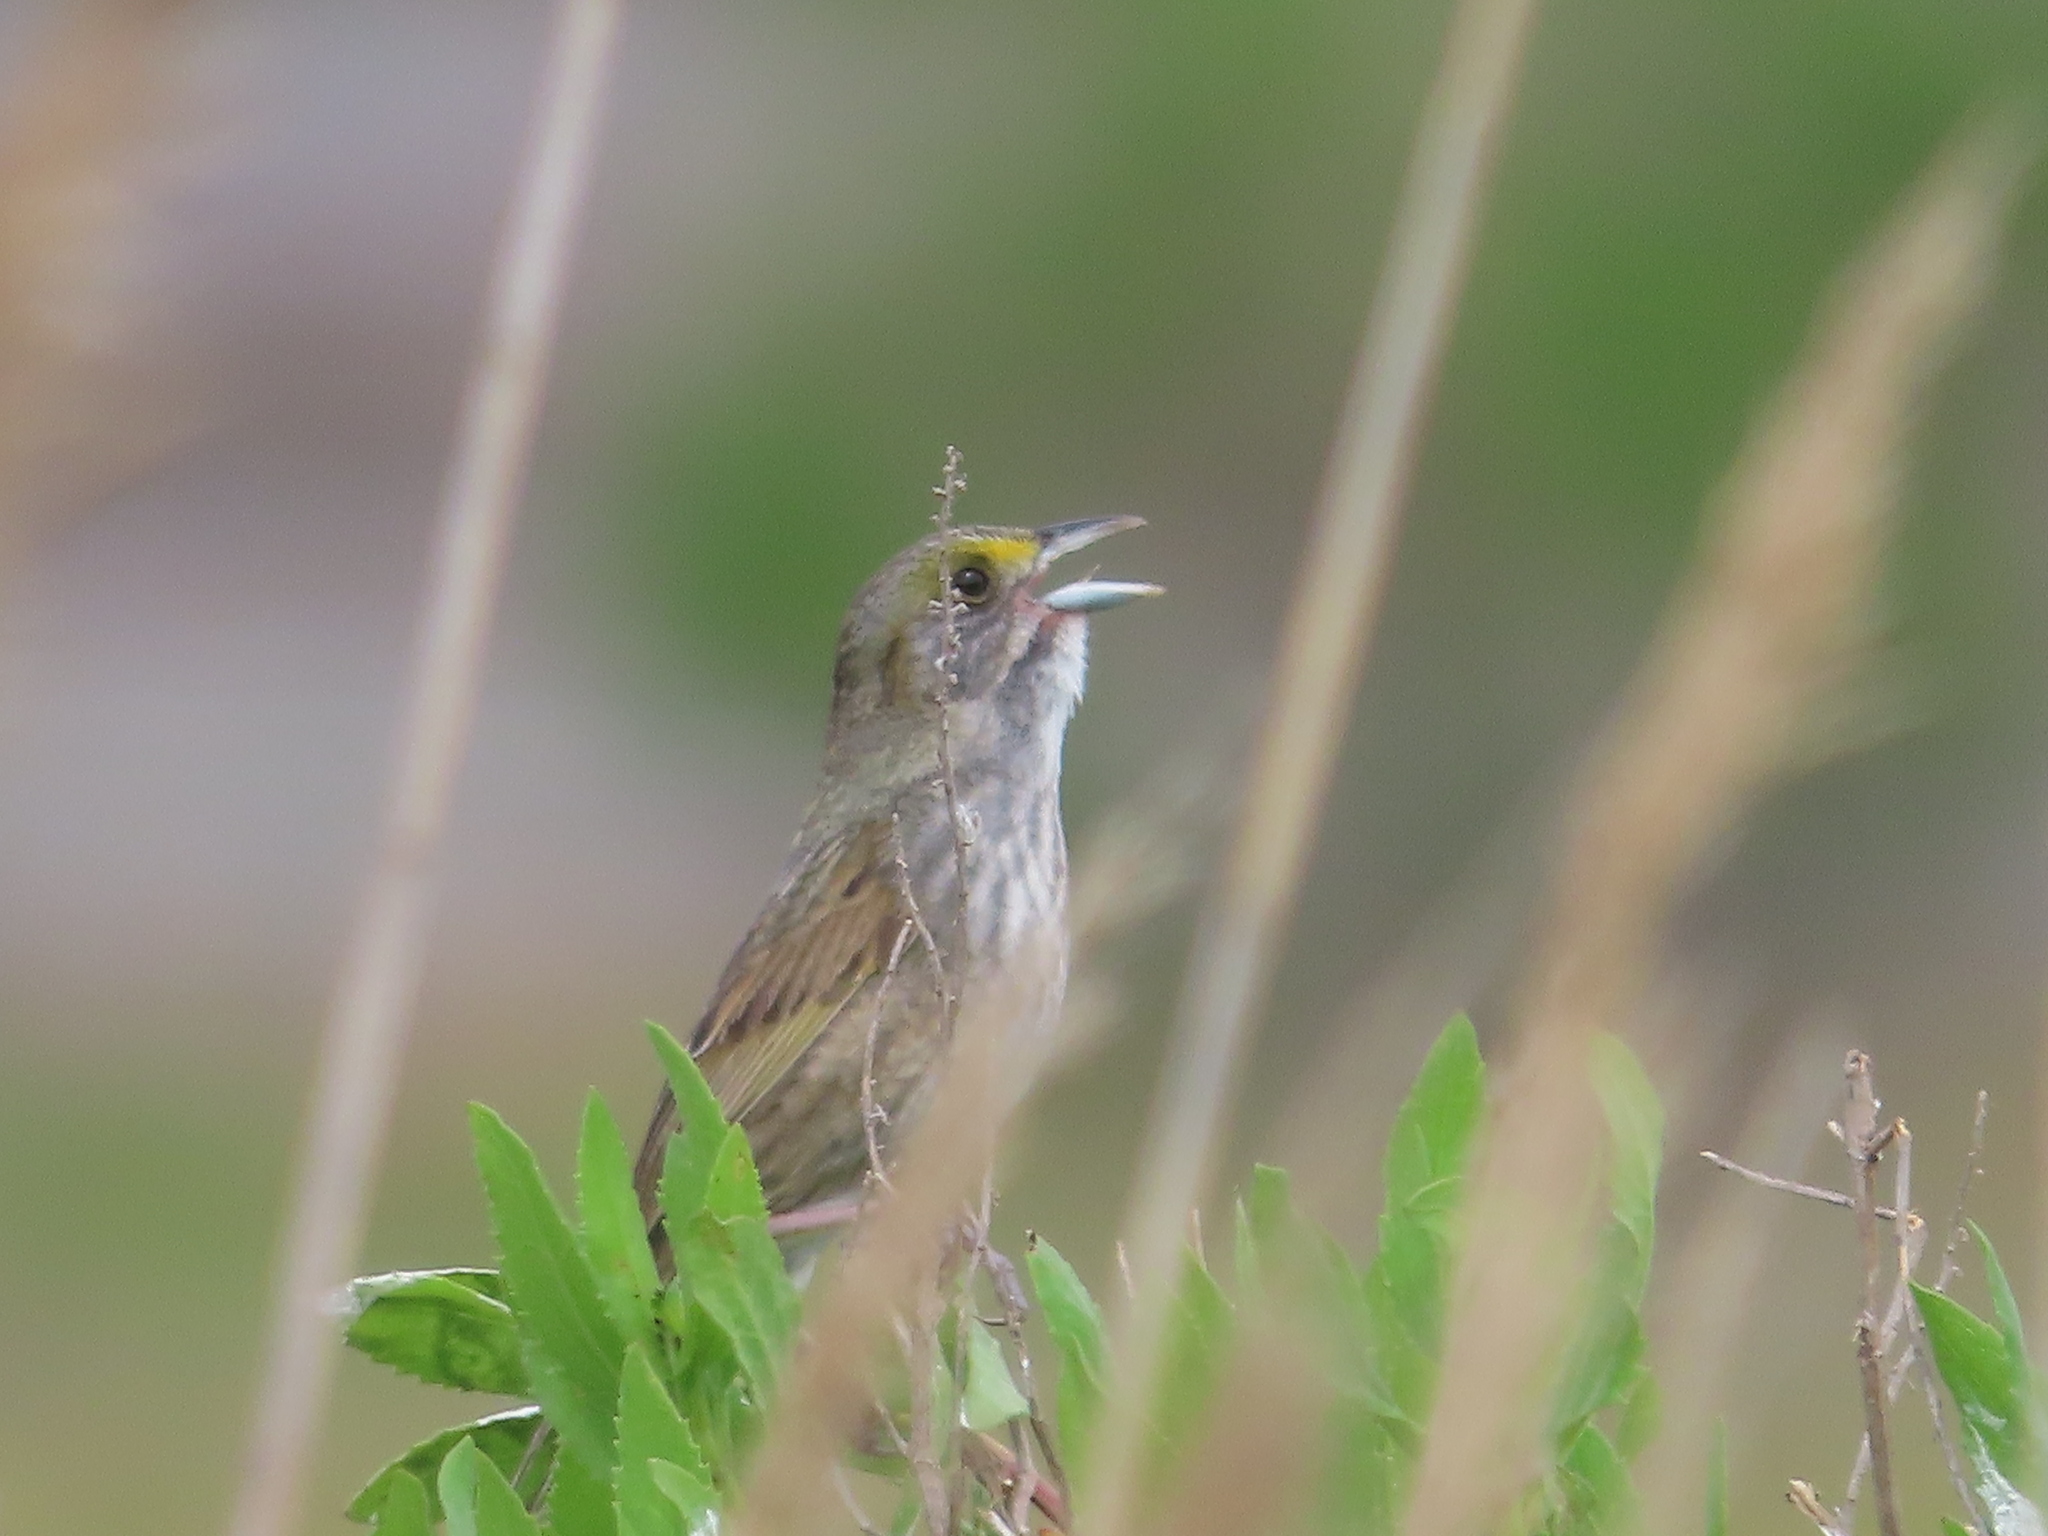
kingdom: Animalia
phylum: Chordata
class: Aves
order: Passeriformes
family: Passerellidae
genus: Ammospiza
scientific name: Ammospiza maritima
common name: Seaside sparrow
